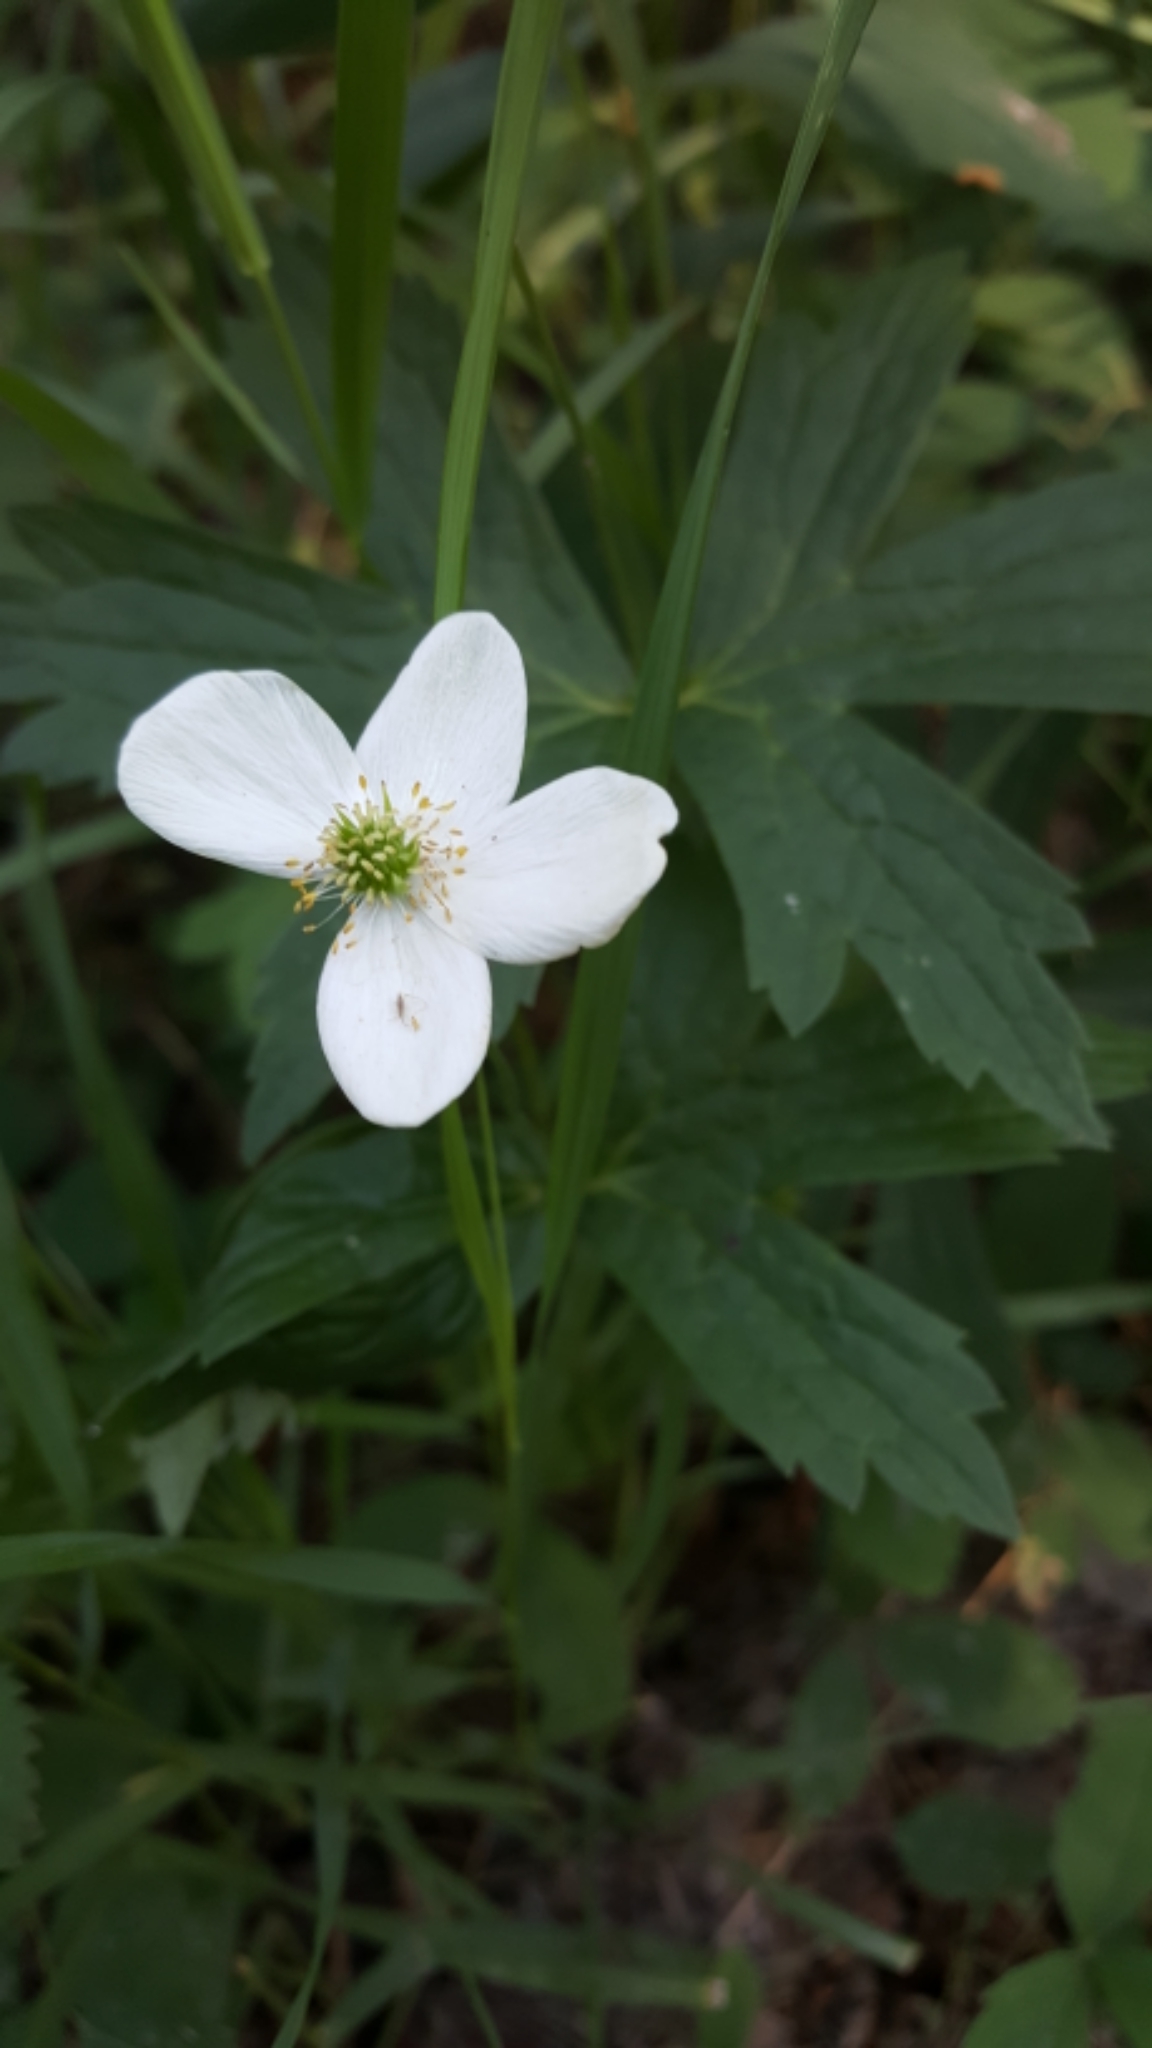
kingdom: Plantae
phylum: Tracheophyta
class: Magnoliopsida
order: Ranunculales
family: Ranunculaceae
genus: Anemonastrum
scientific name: Anemonastrum canadense
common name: Canada anemone
